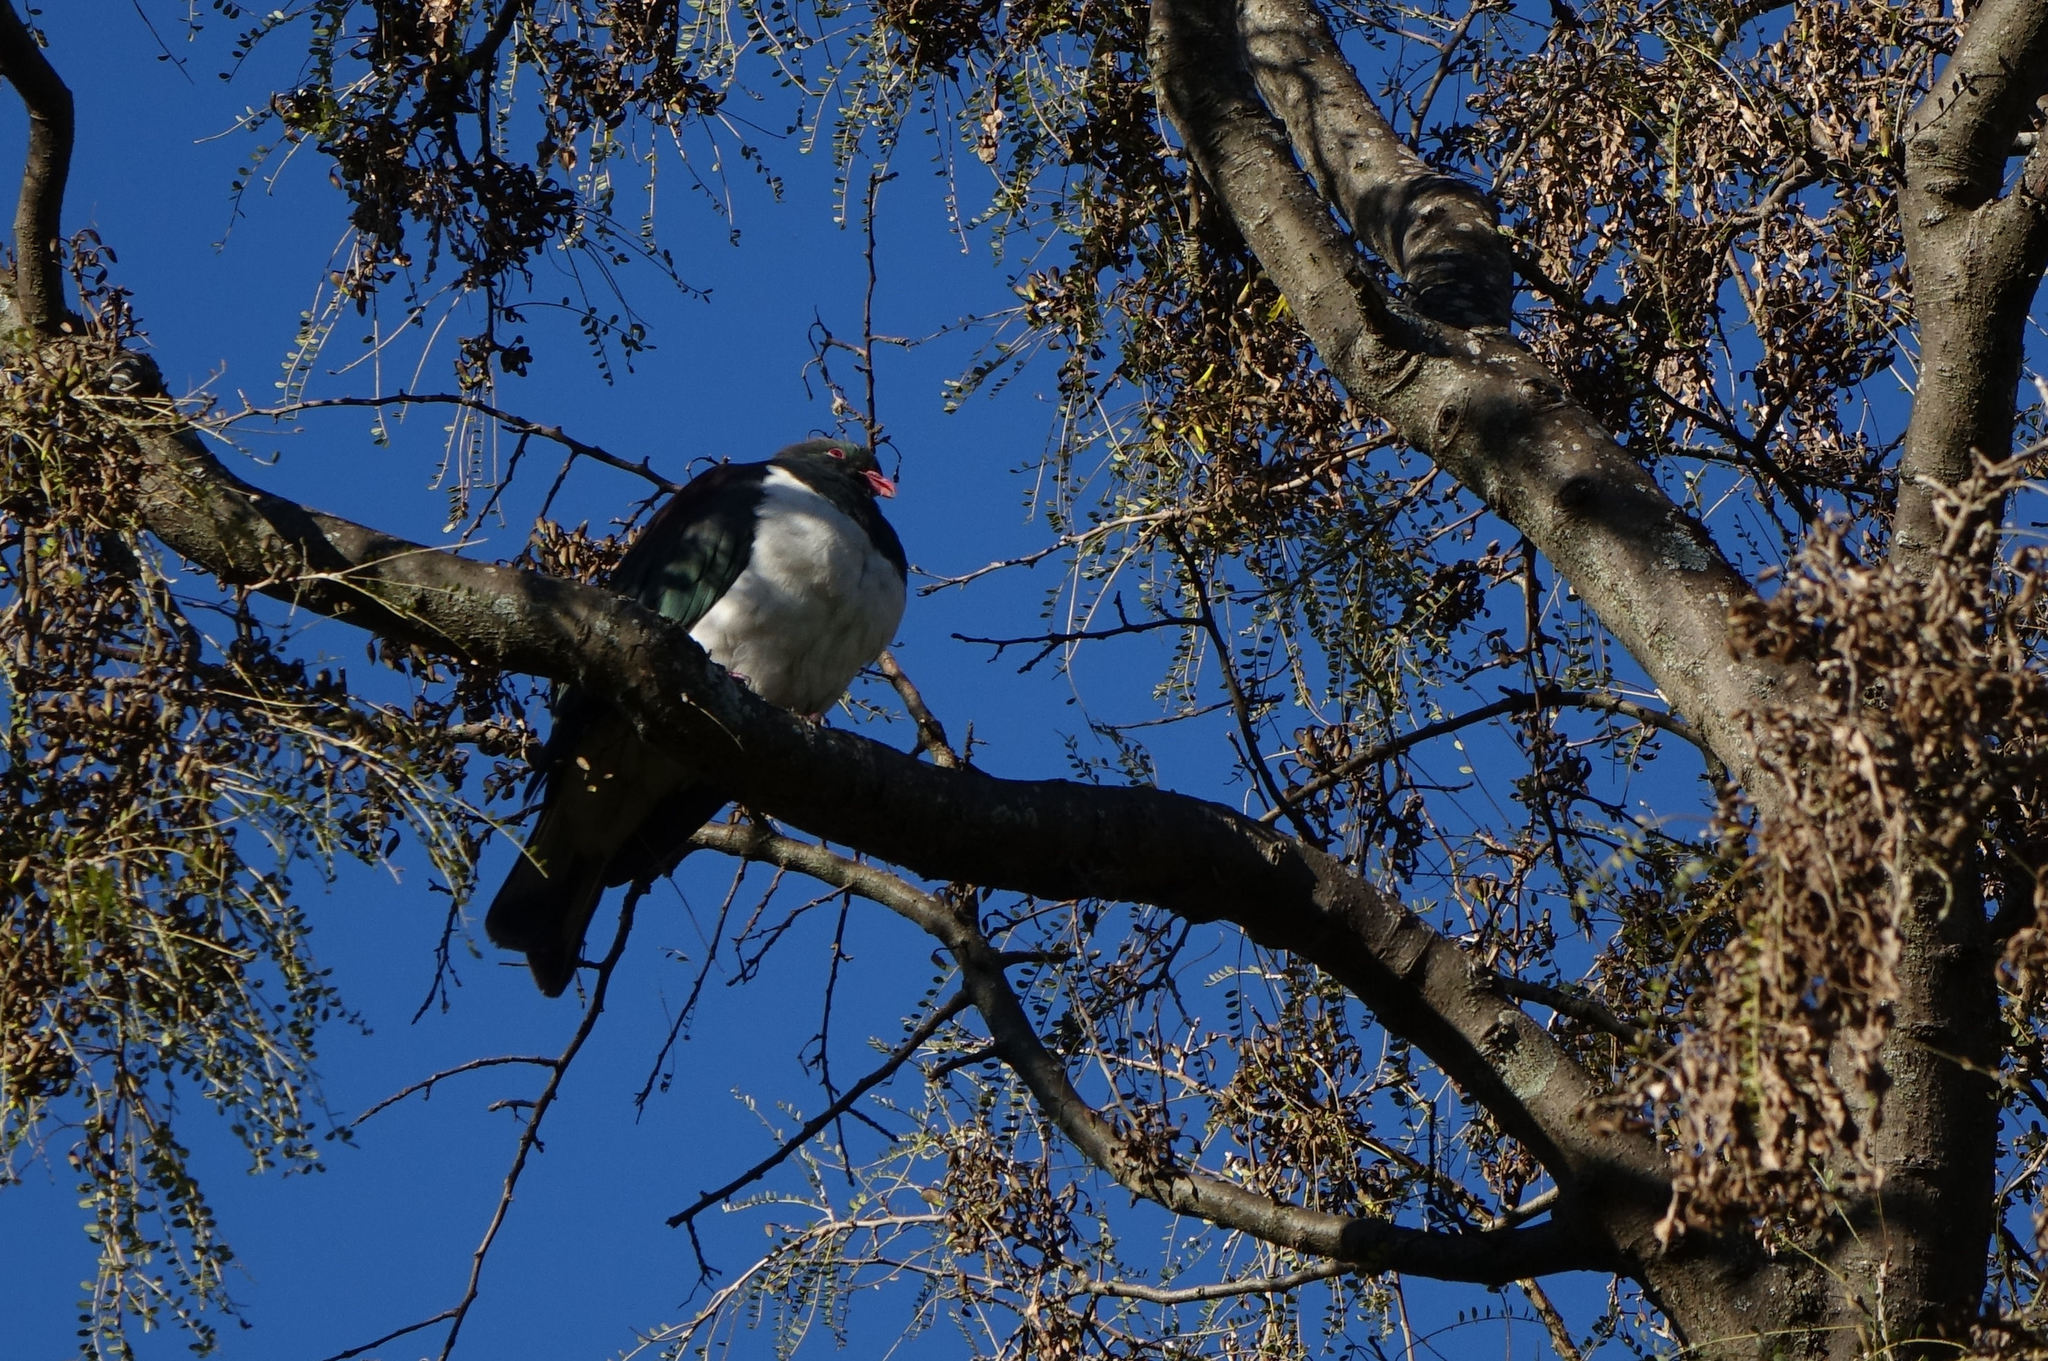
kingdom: Animalia
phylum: Chordata
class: Aves
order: Columbiformes
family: Columbidae
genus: Hemiphaga
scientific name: Hemiphaga novaeseelandiae
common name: New zealand pigeon
